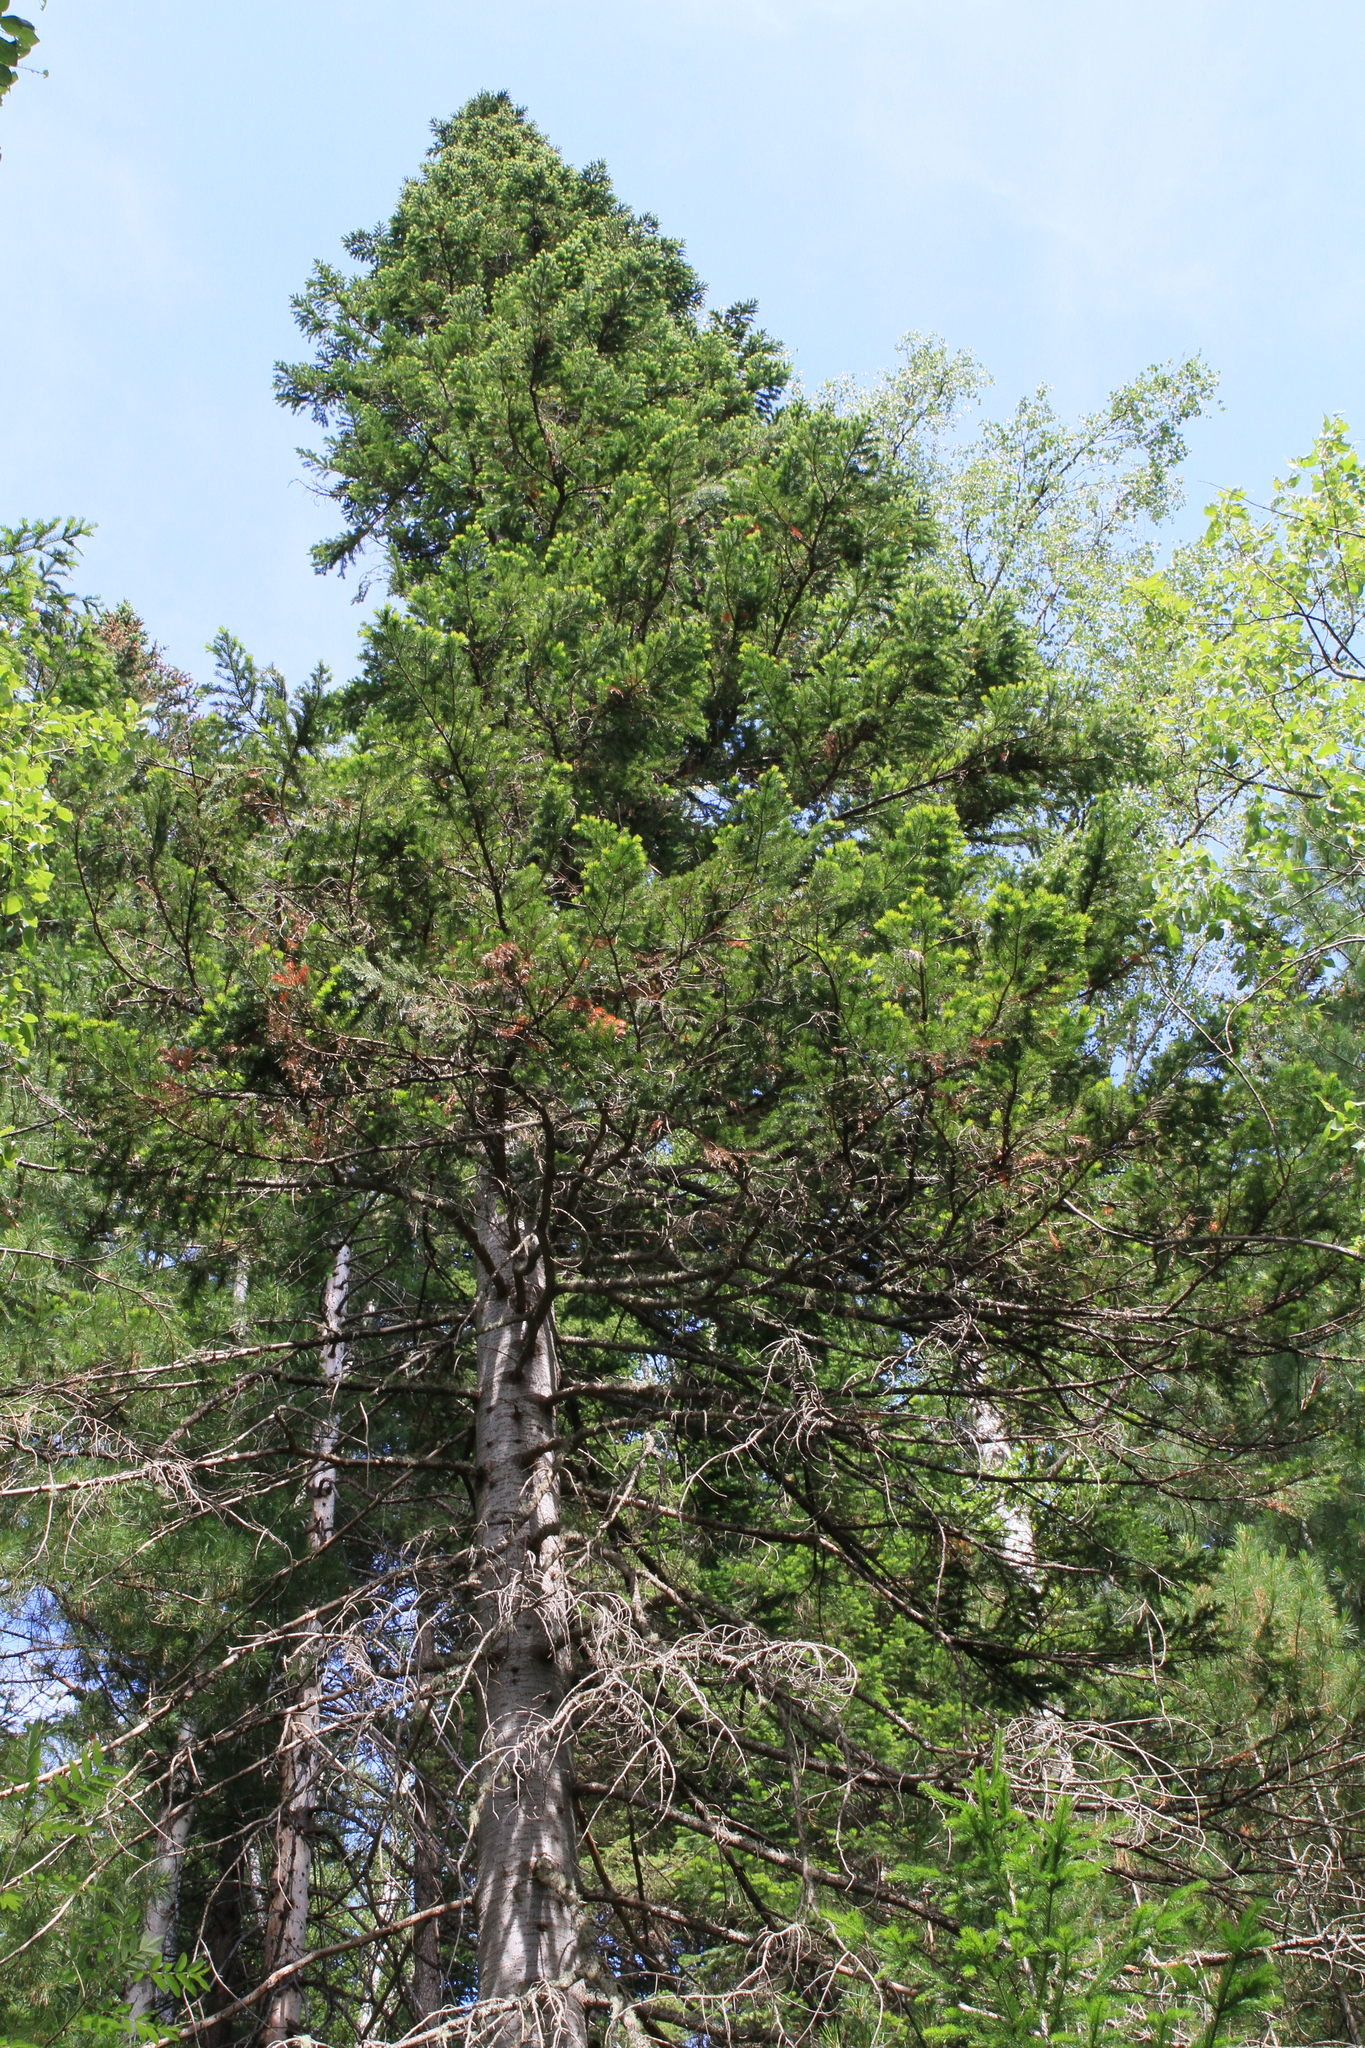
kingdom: Plantae
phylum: Tracheophyta
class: Pinopsida
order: Pinales
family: Pinaceae
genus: Abies
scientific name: Abies sibirica
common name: Siberian fir
